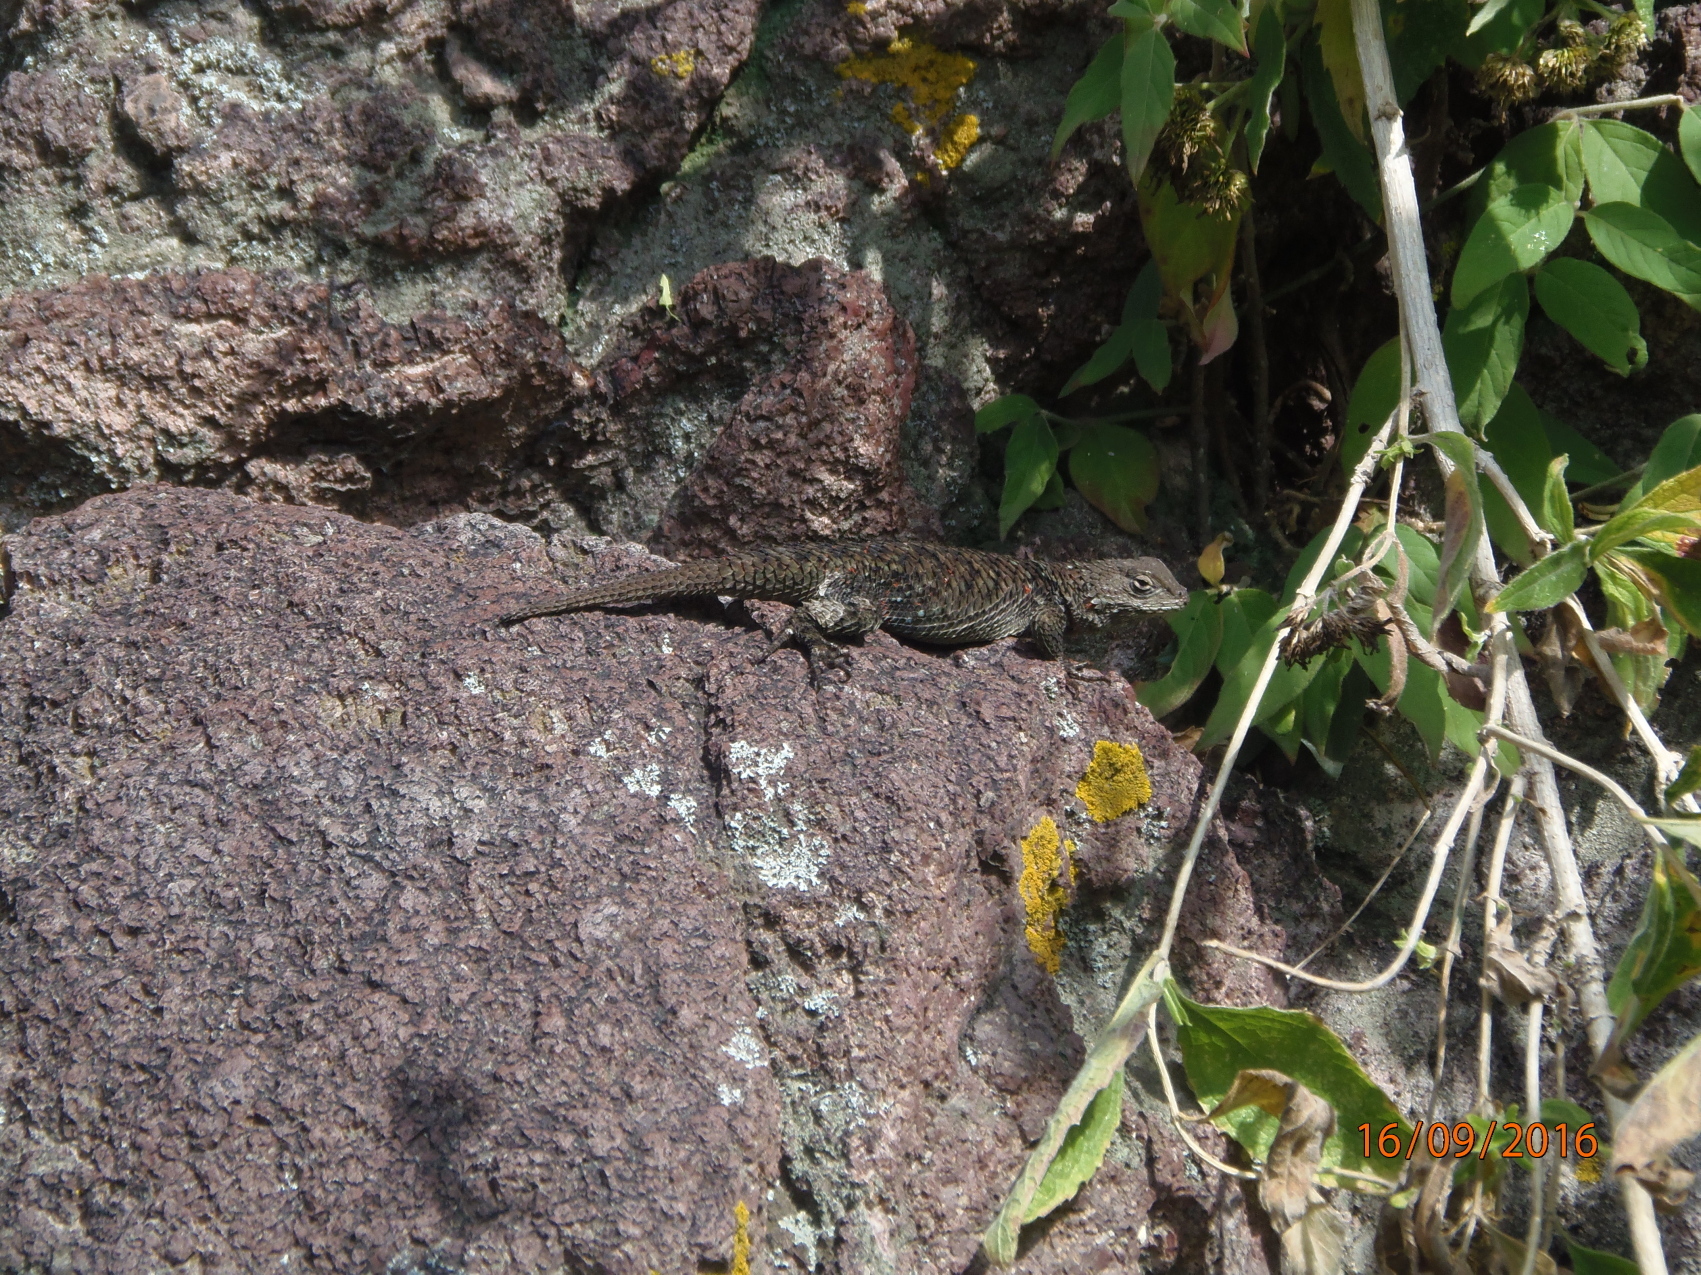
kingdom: Animalia
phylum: Chordata
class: Squamata
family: Phrynosomatidae
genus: Sceloporus
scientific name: Sceloporus torquatus
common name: Central plateau torquate lizard [melanogaster]
